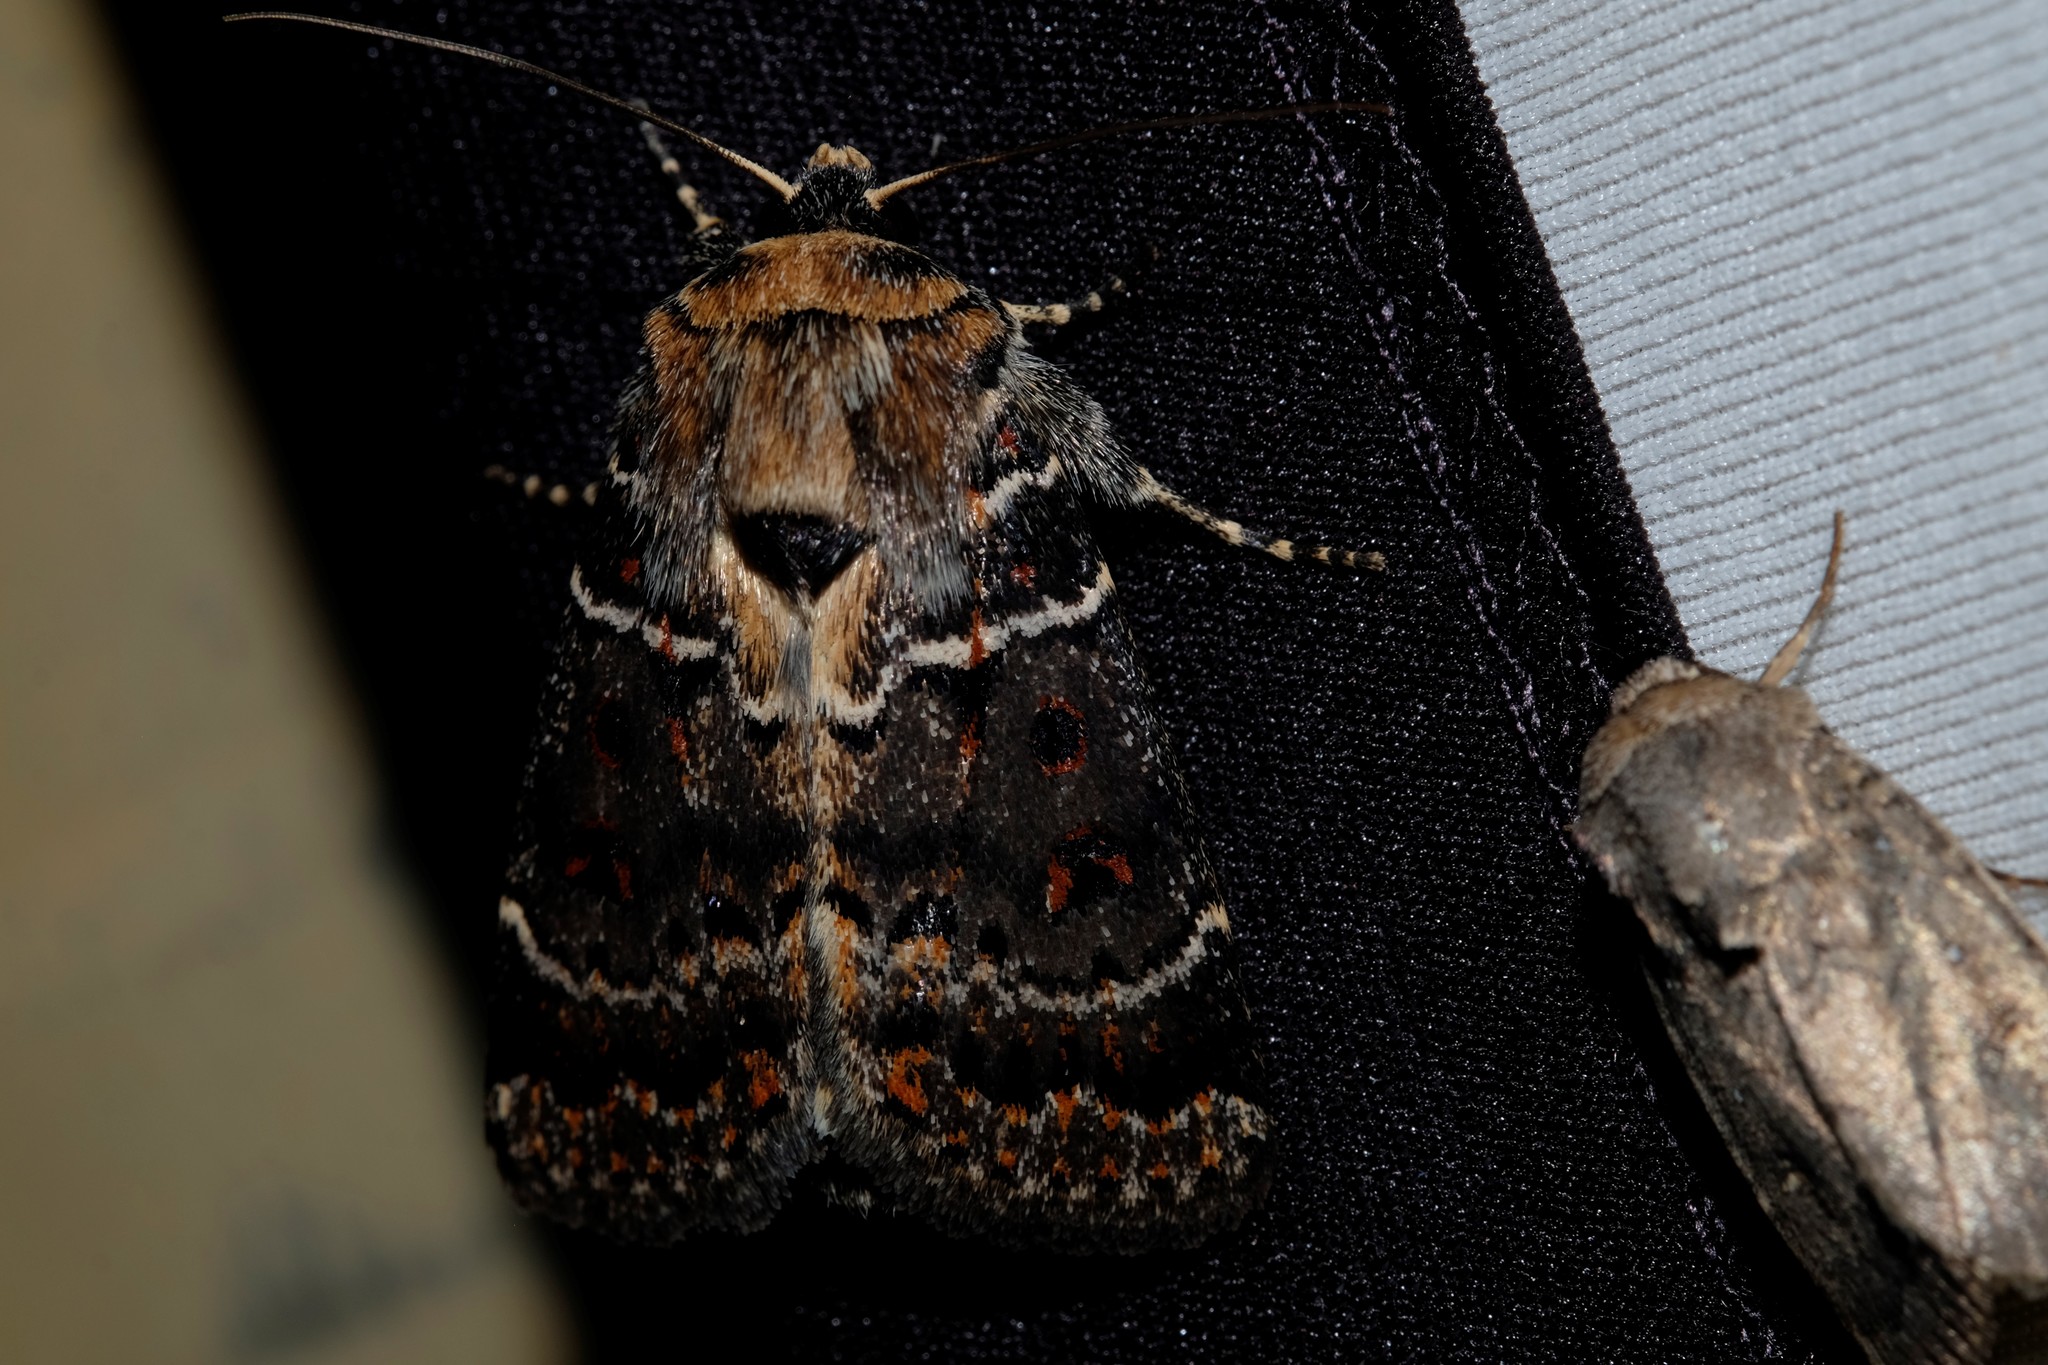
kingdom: Animalia
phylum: Arthropoda
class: Insecta
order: Lepidoptera
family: Noctuidae
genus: Proteuxoa
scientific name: Proteuxoa sanguinipuncta
